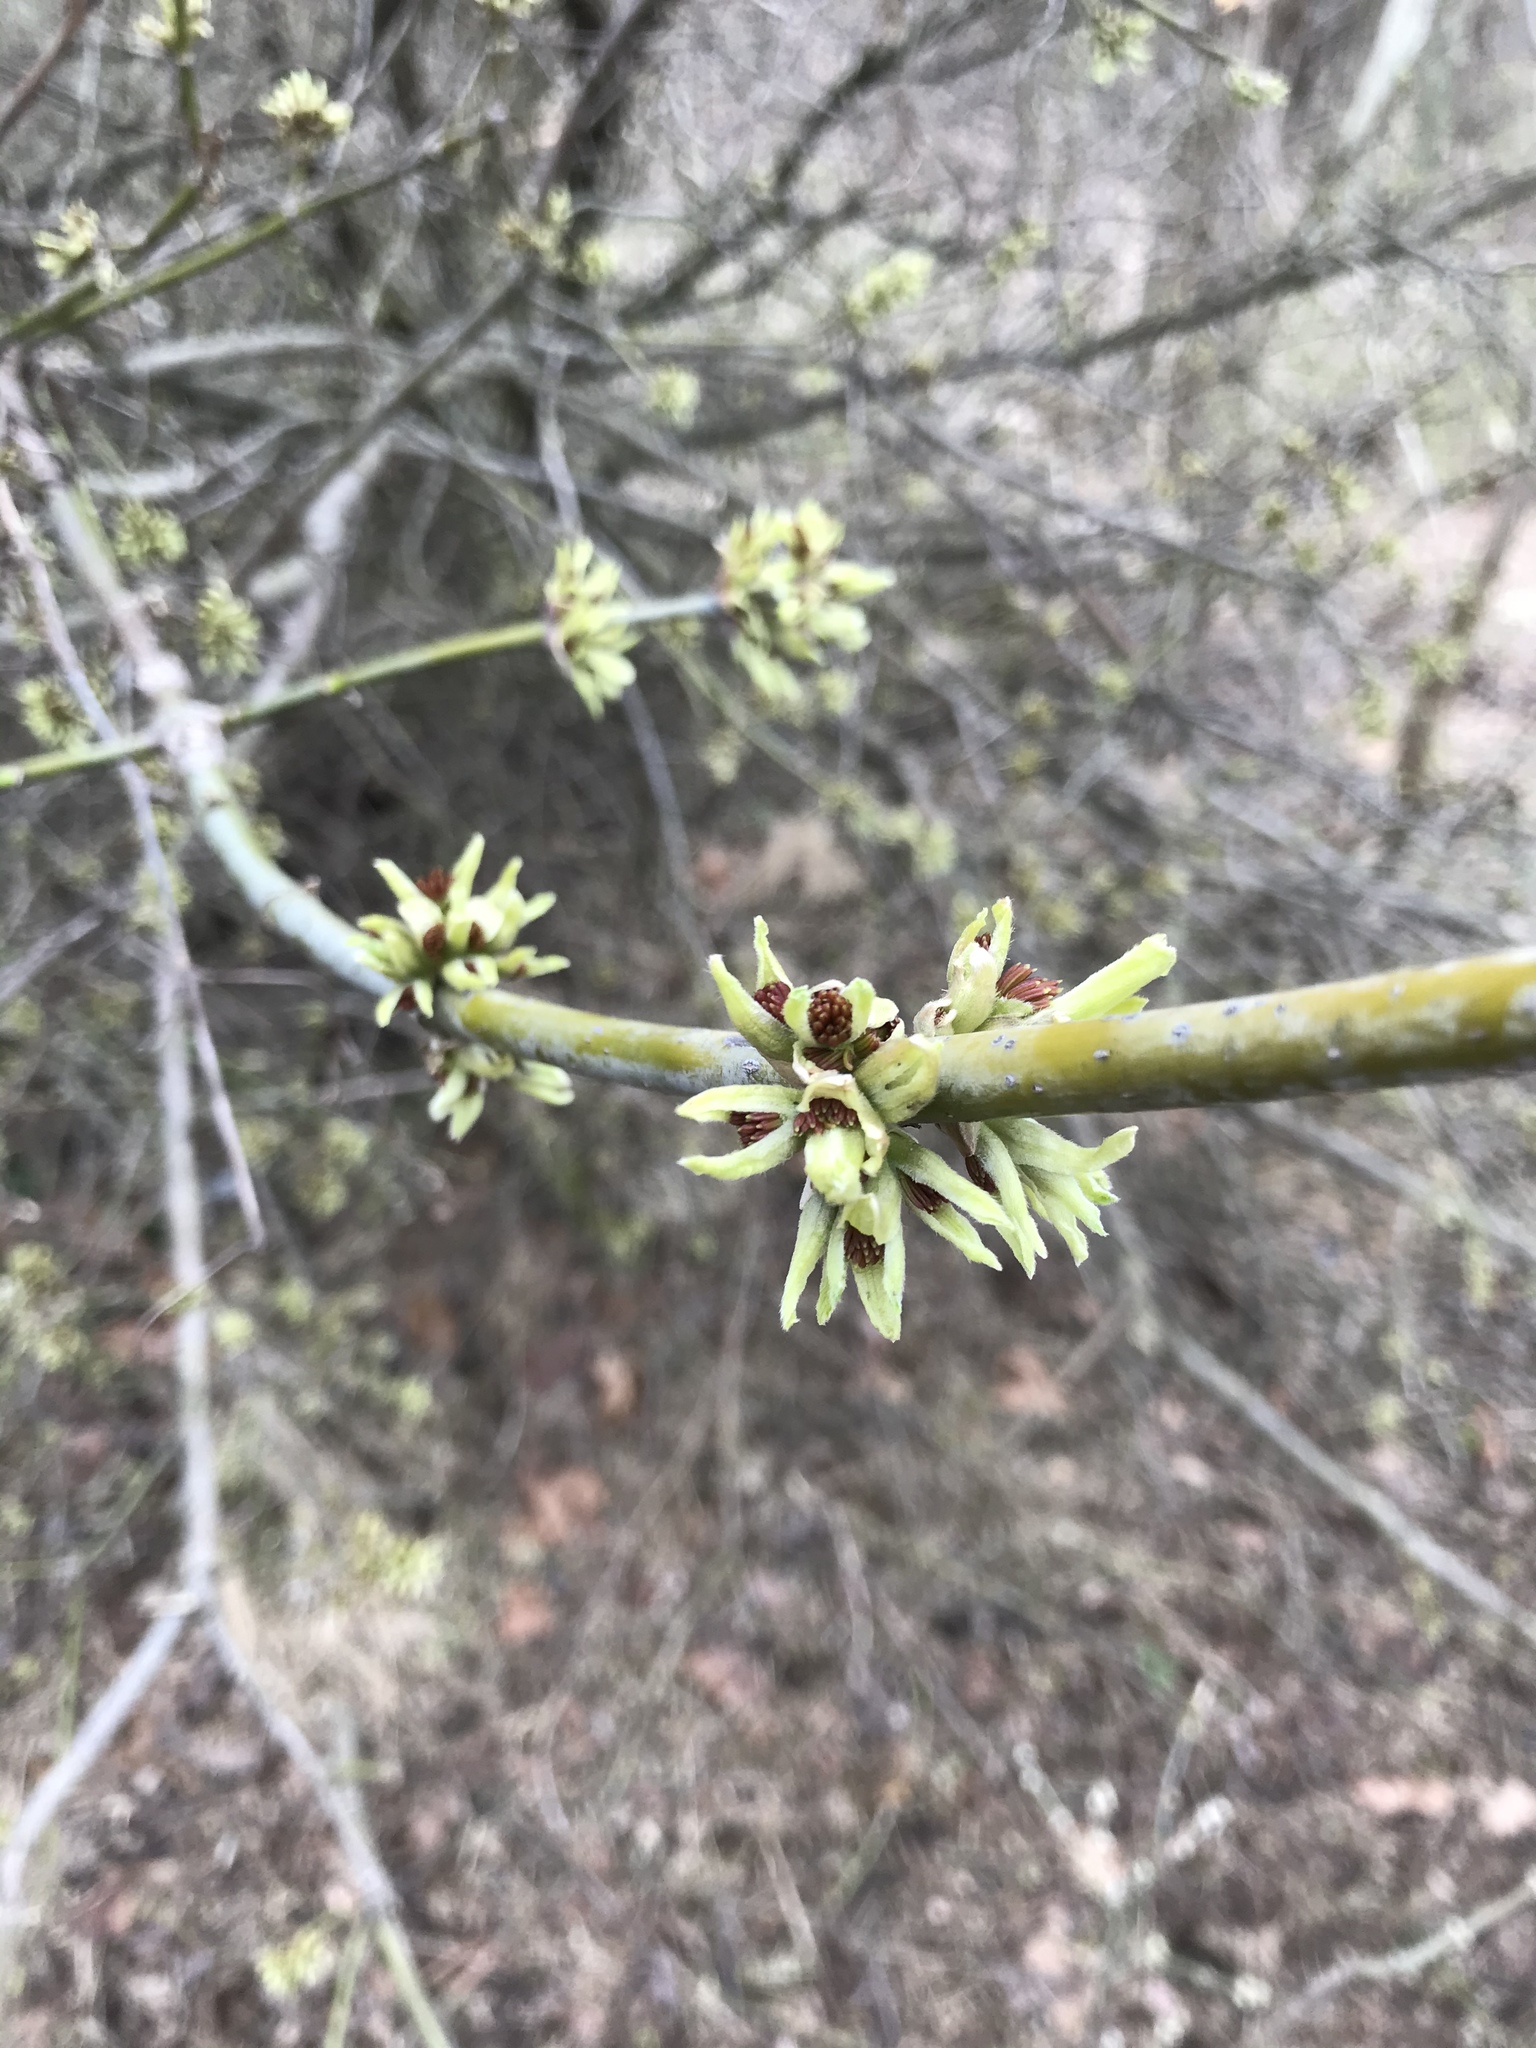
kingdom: Plantae
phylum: Tracheophyta
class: Magnoliopsida
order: Sapindales
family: Sapindaceae
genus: Acer
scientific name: Acer negundo
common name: Ashleaf maple
